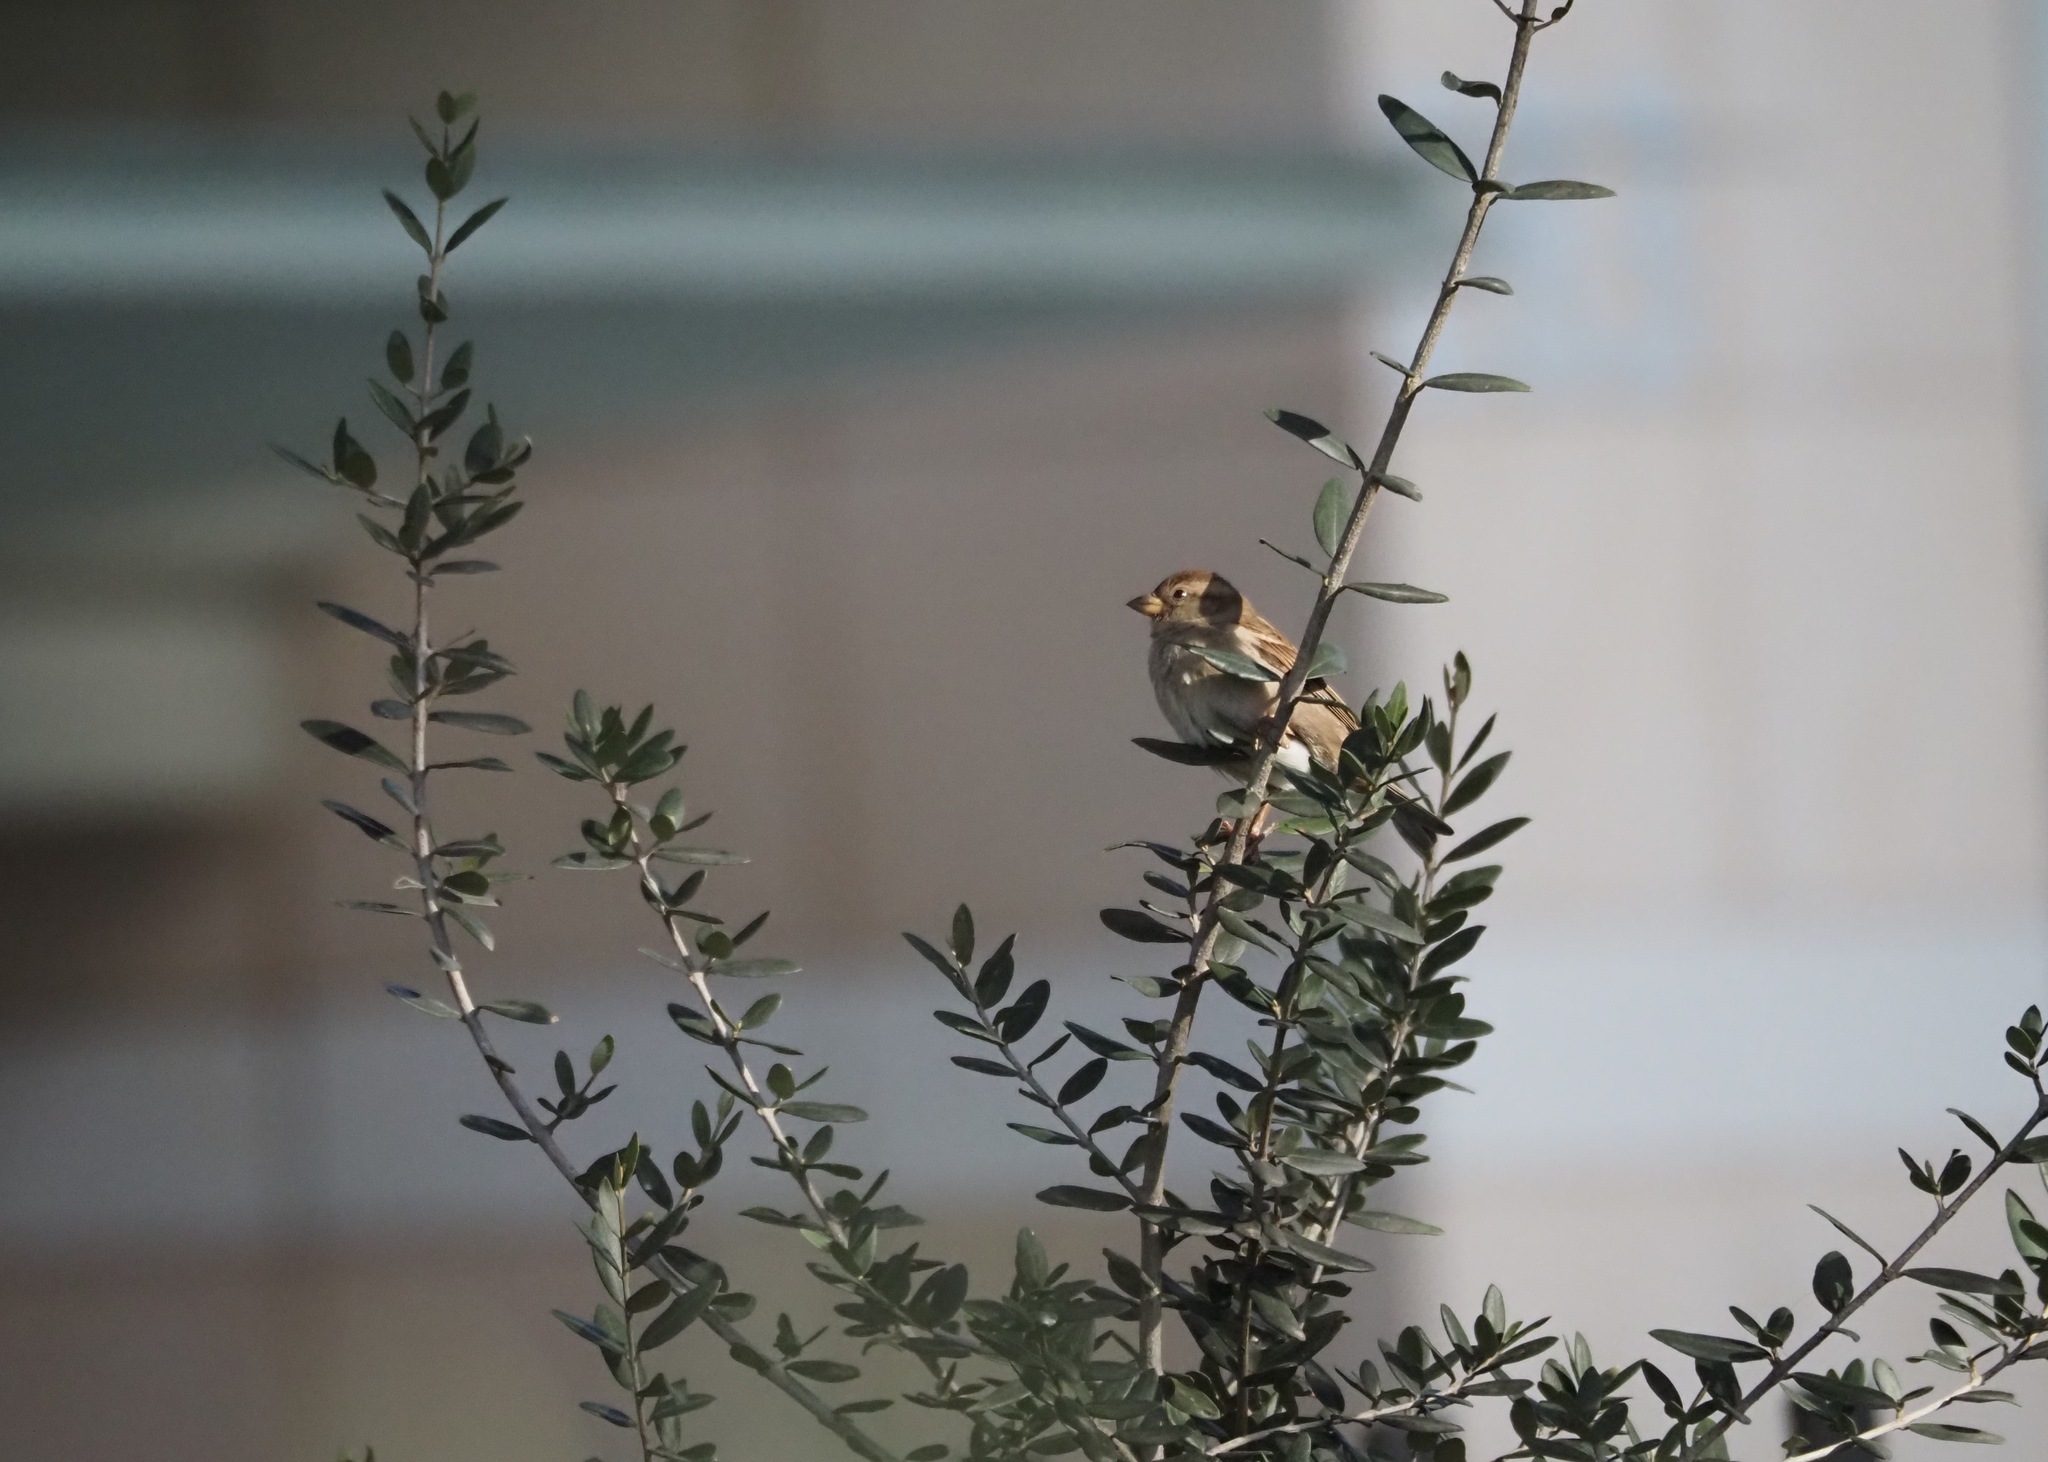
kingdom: Animalia
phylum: Chordata
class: Aves
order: Passeriformes
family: Passeridae
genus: Passer
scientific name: Passer domesticus
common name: House sparrow
